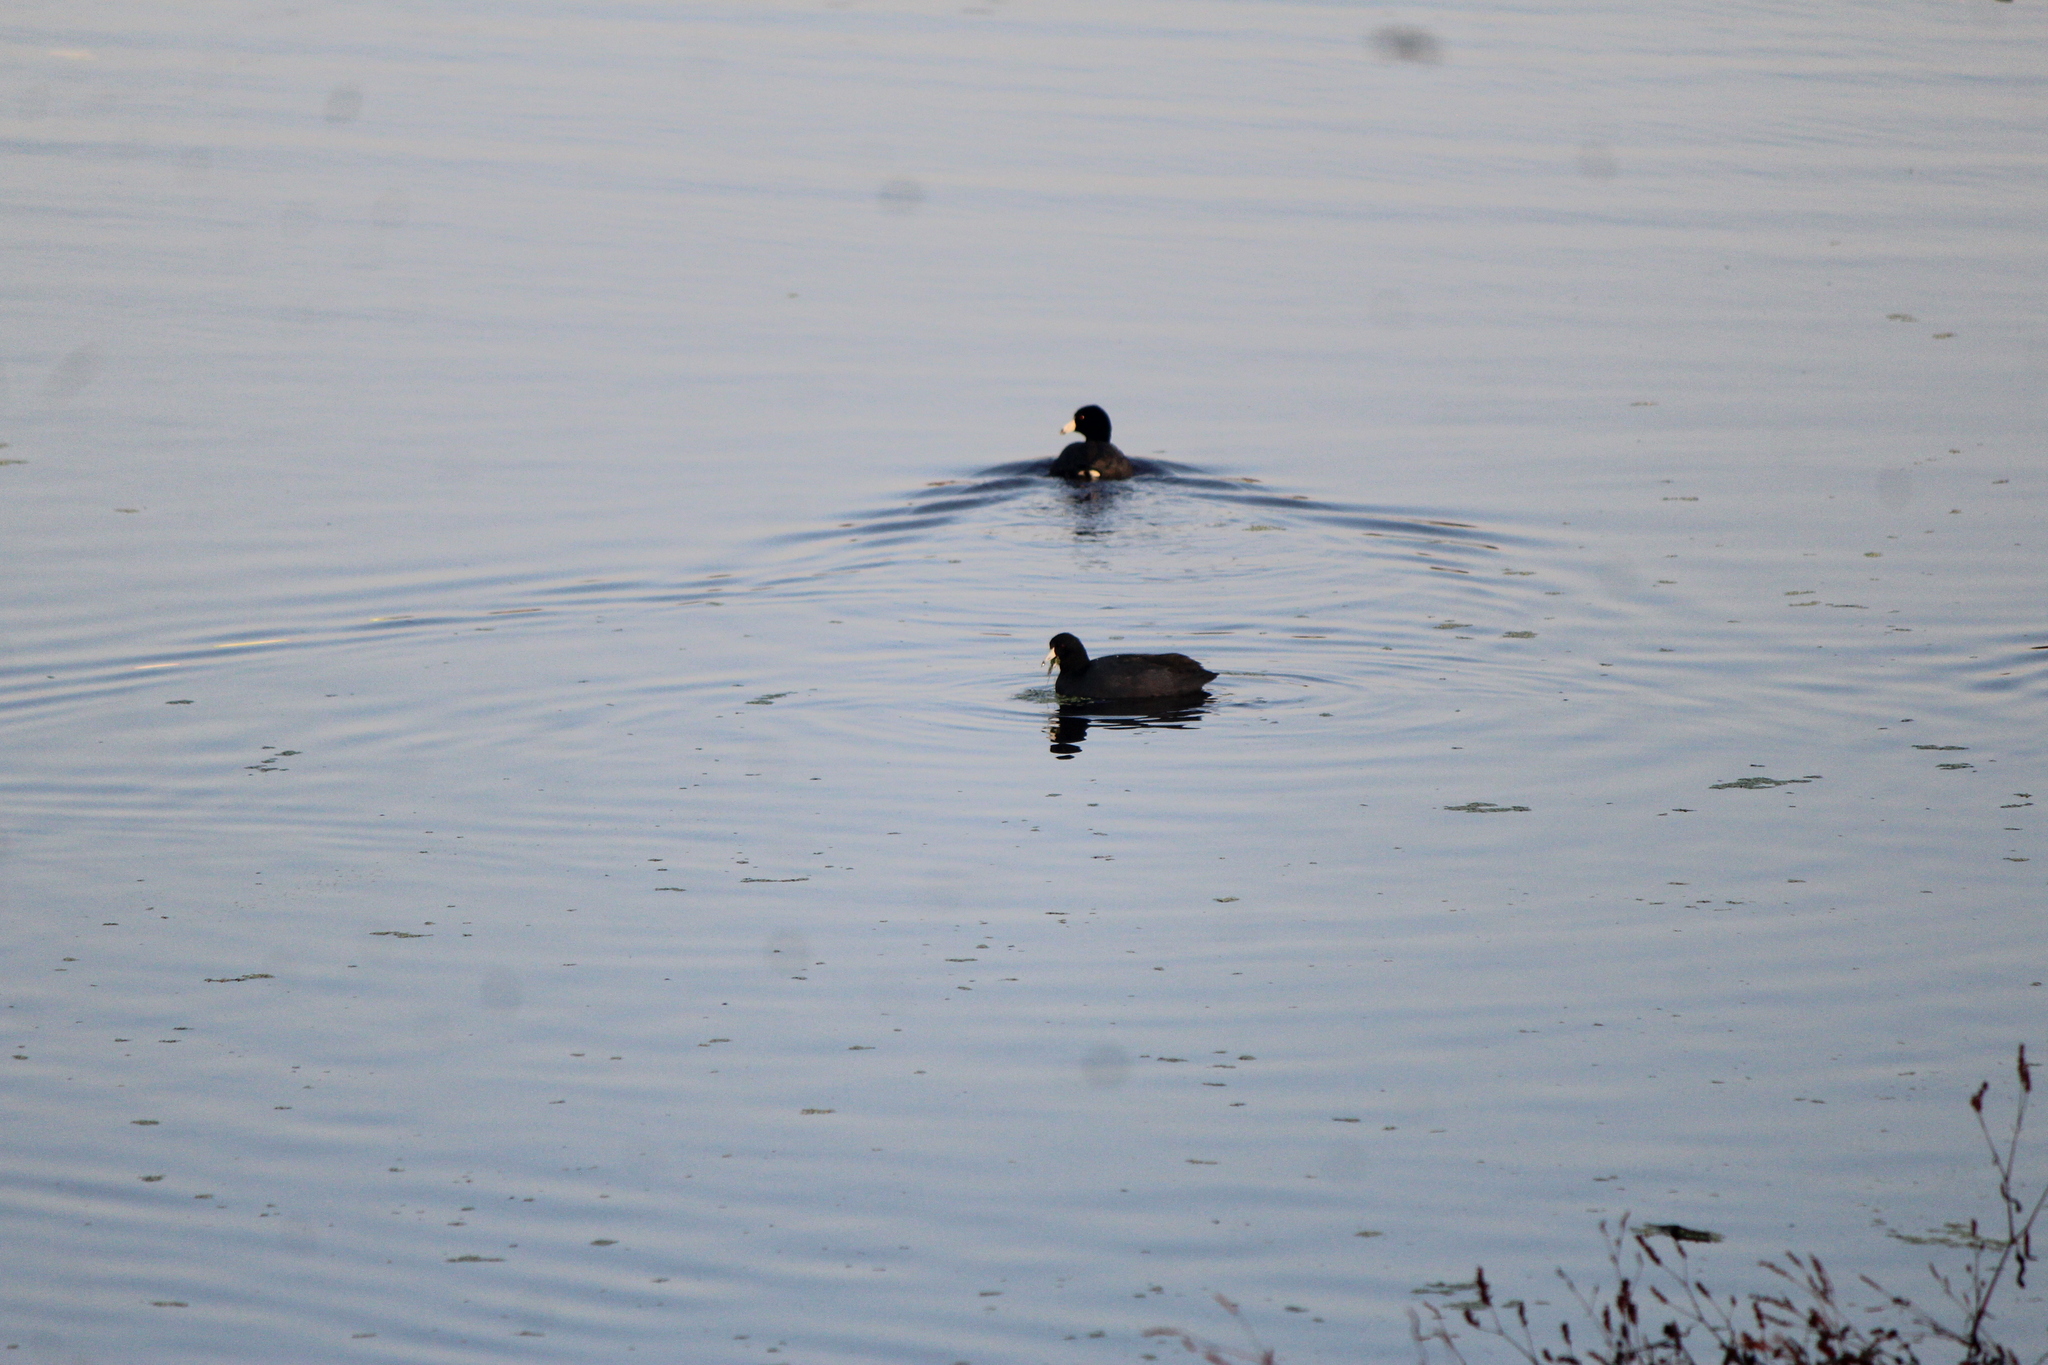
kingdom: Animalia
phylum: Chordata
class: Aves
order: Gruiformes
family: Rallidae
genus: Fulica
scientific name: Fulica americana
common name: American coot
